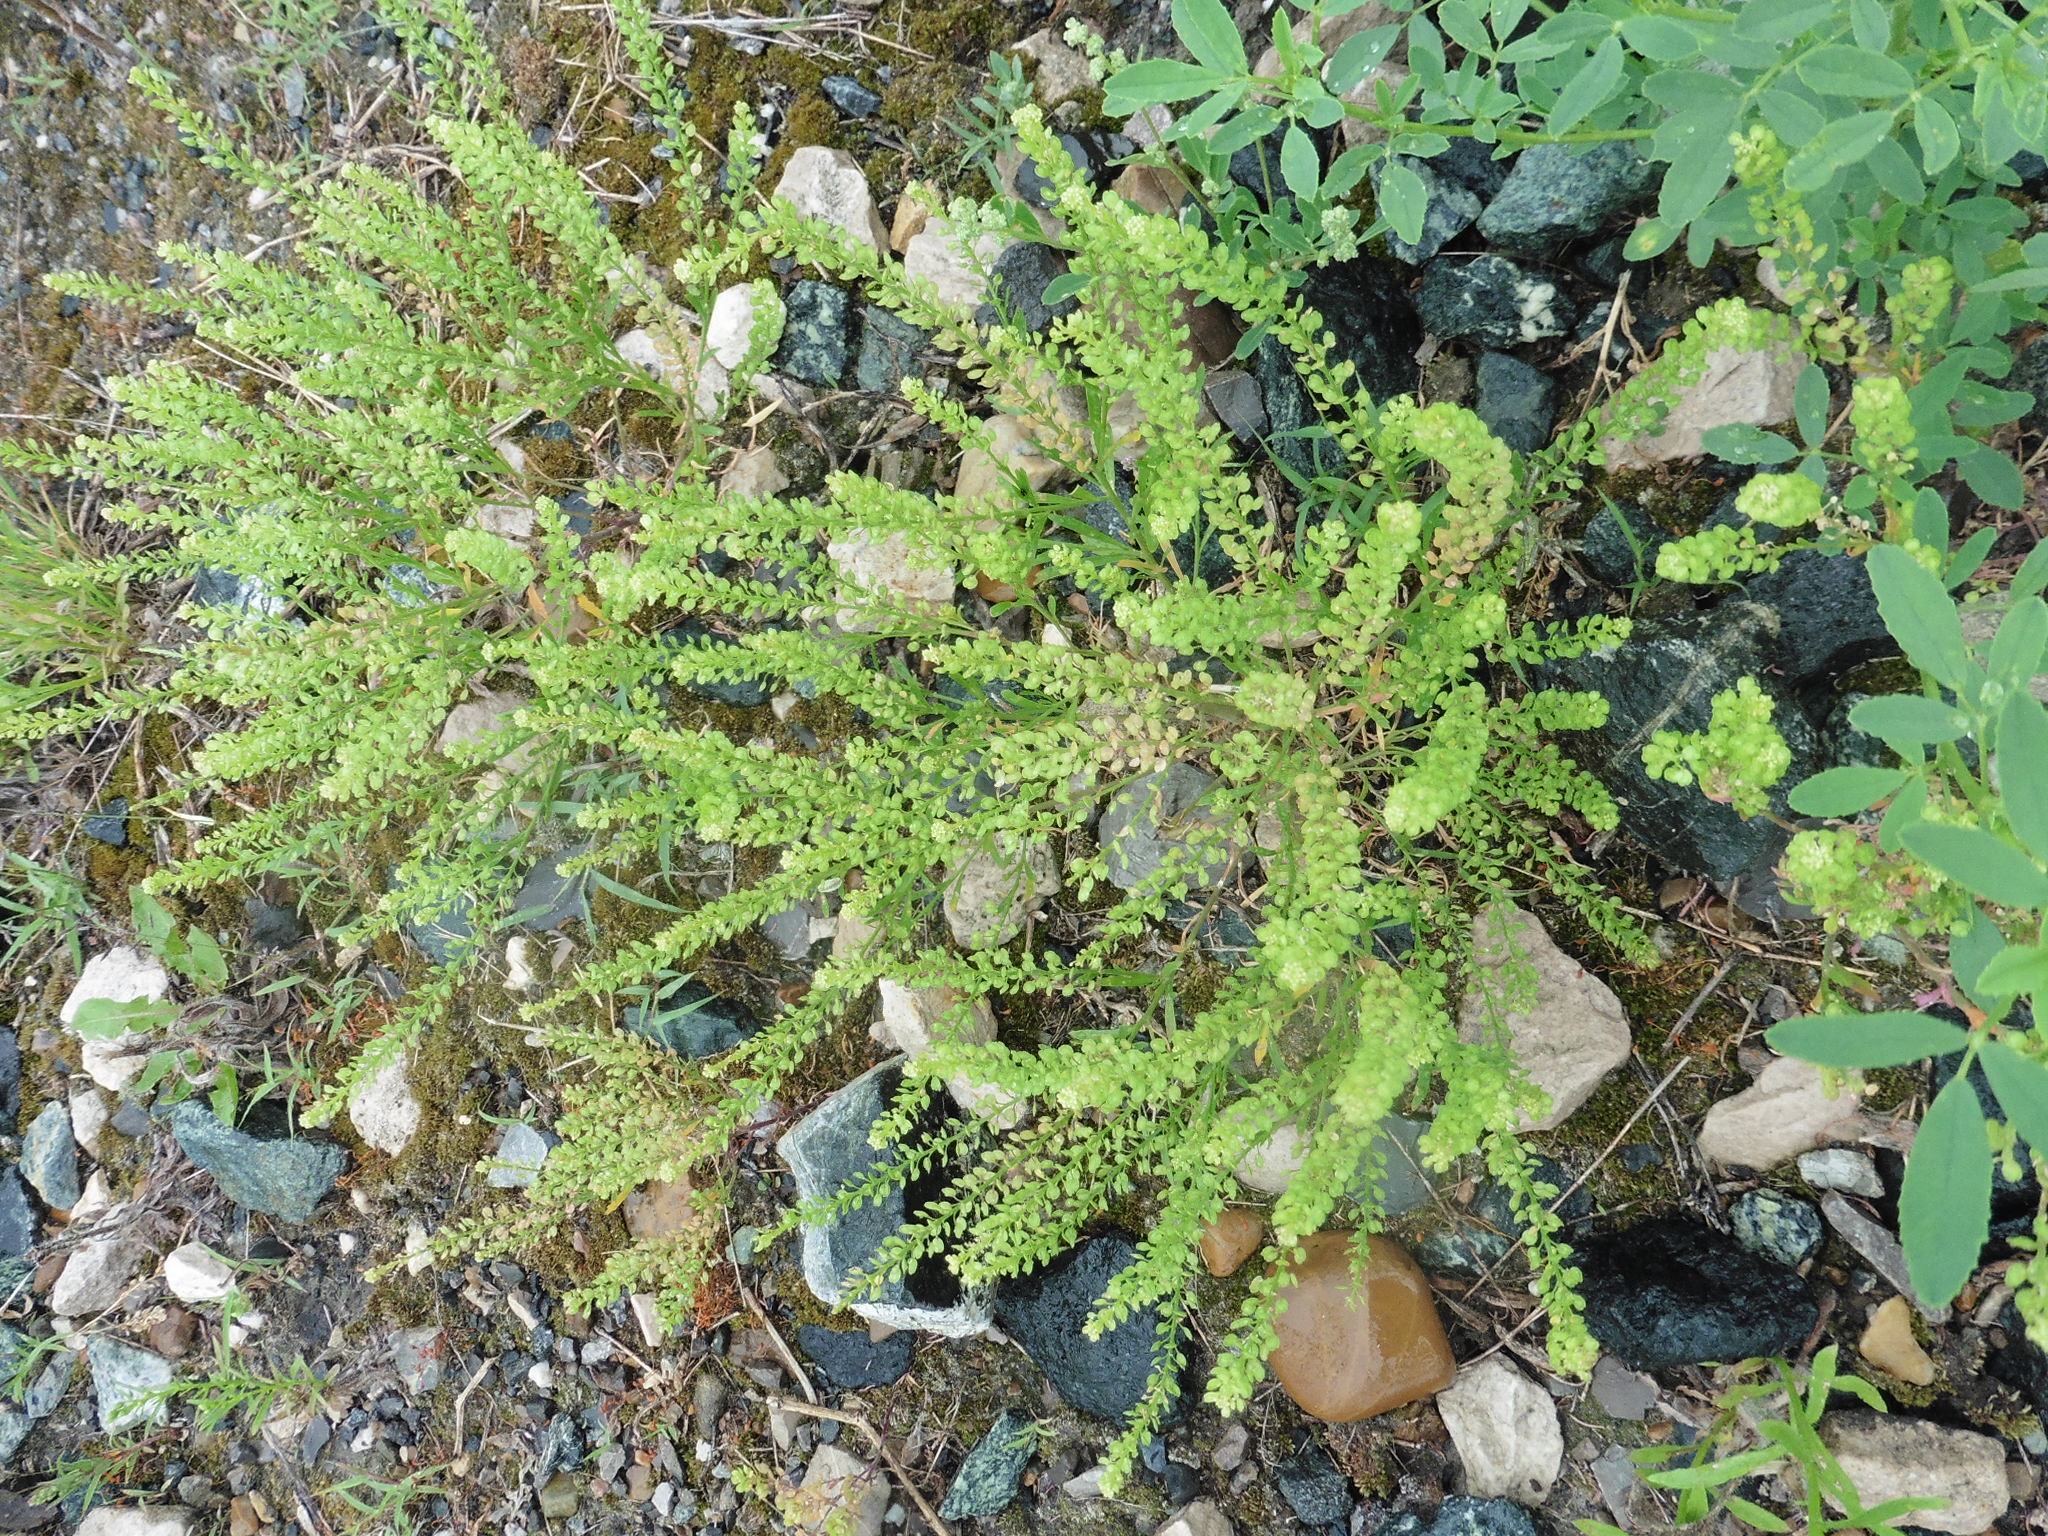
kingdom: Plantae
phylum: Tracheophyta
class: Magnoliopsida
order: Brassicales
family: Brassicaceae
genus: Lepidium
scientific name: Lepidium densiflorum
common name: Miner's pepperwort
